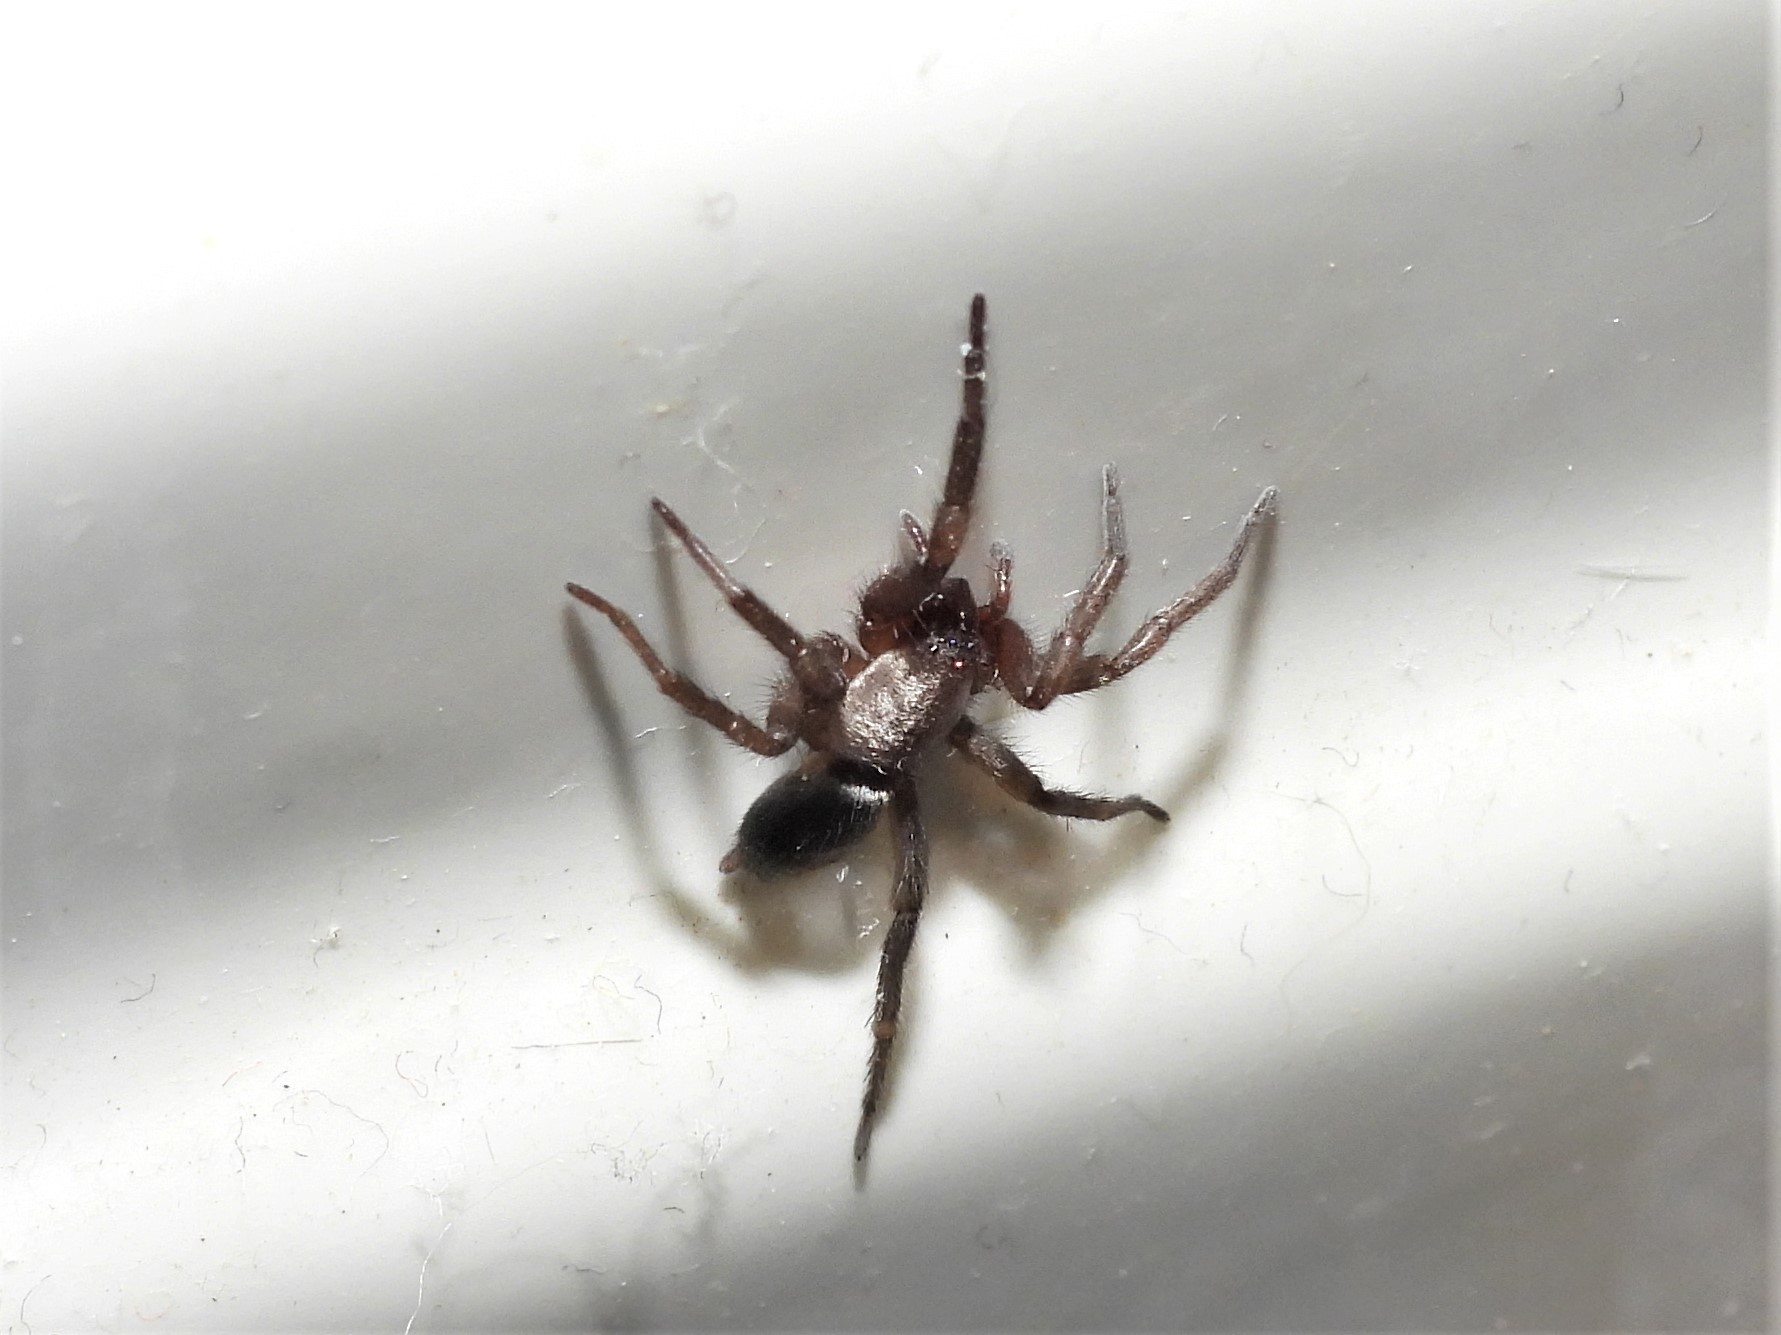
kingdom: Animalia
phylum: Arthropoda
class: Arachnida
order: Araneae
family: Gnaphosidae
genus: Scotophaeus
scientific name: Scotophaeus blackwalli
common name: Mouse spider
